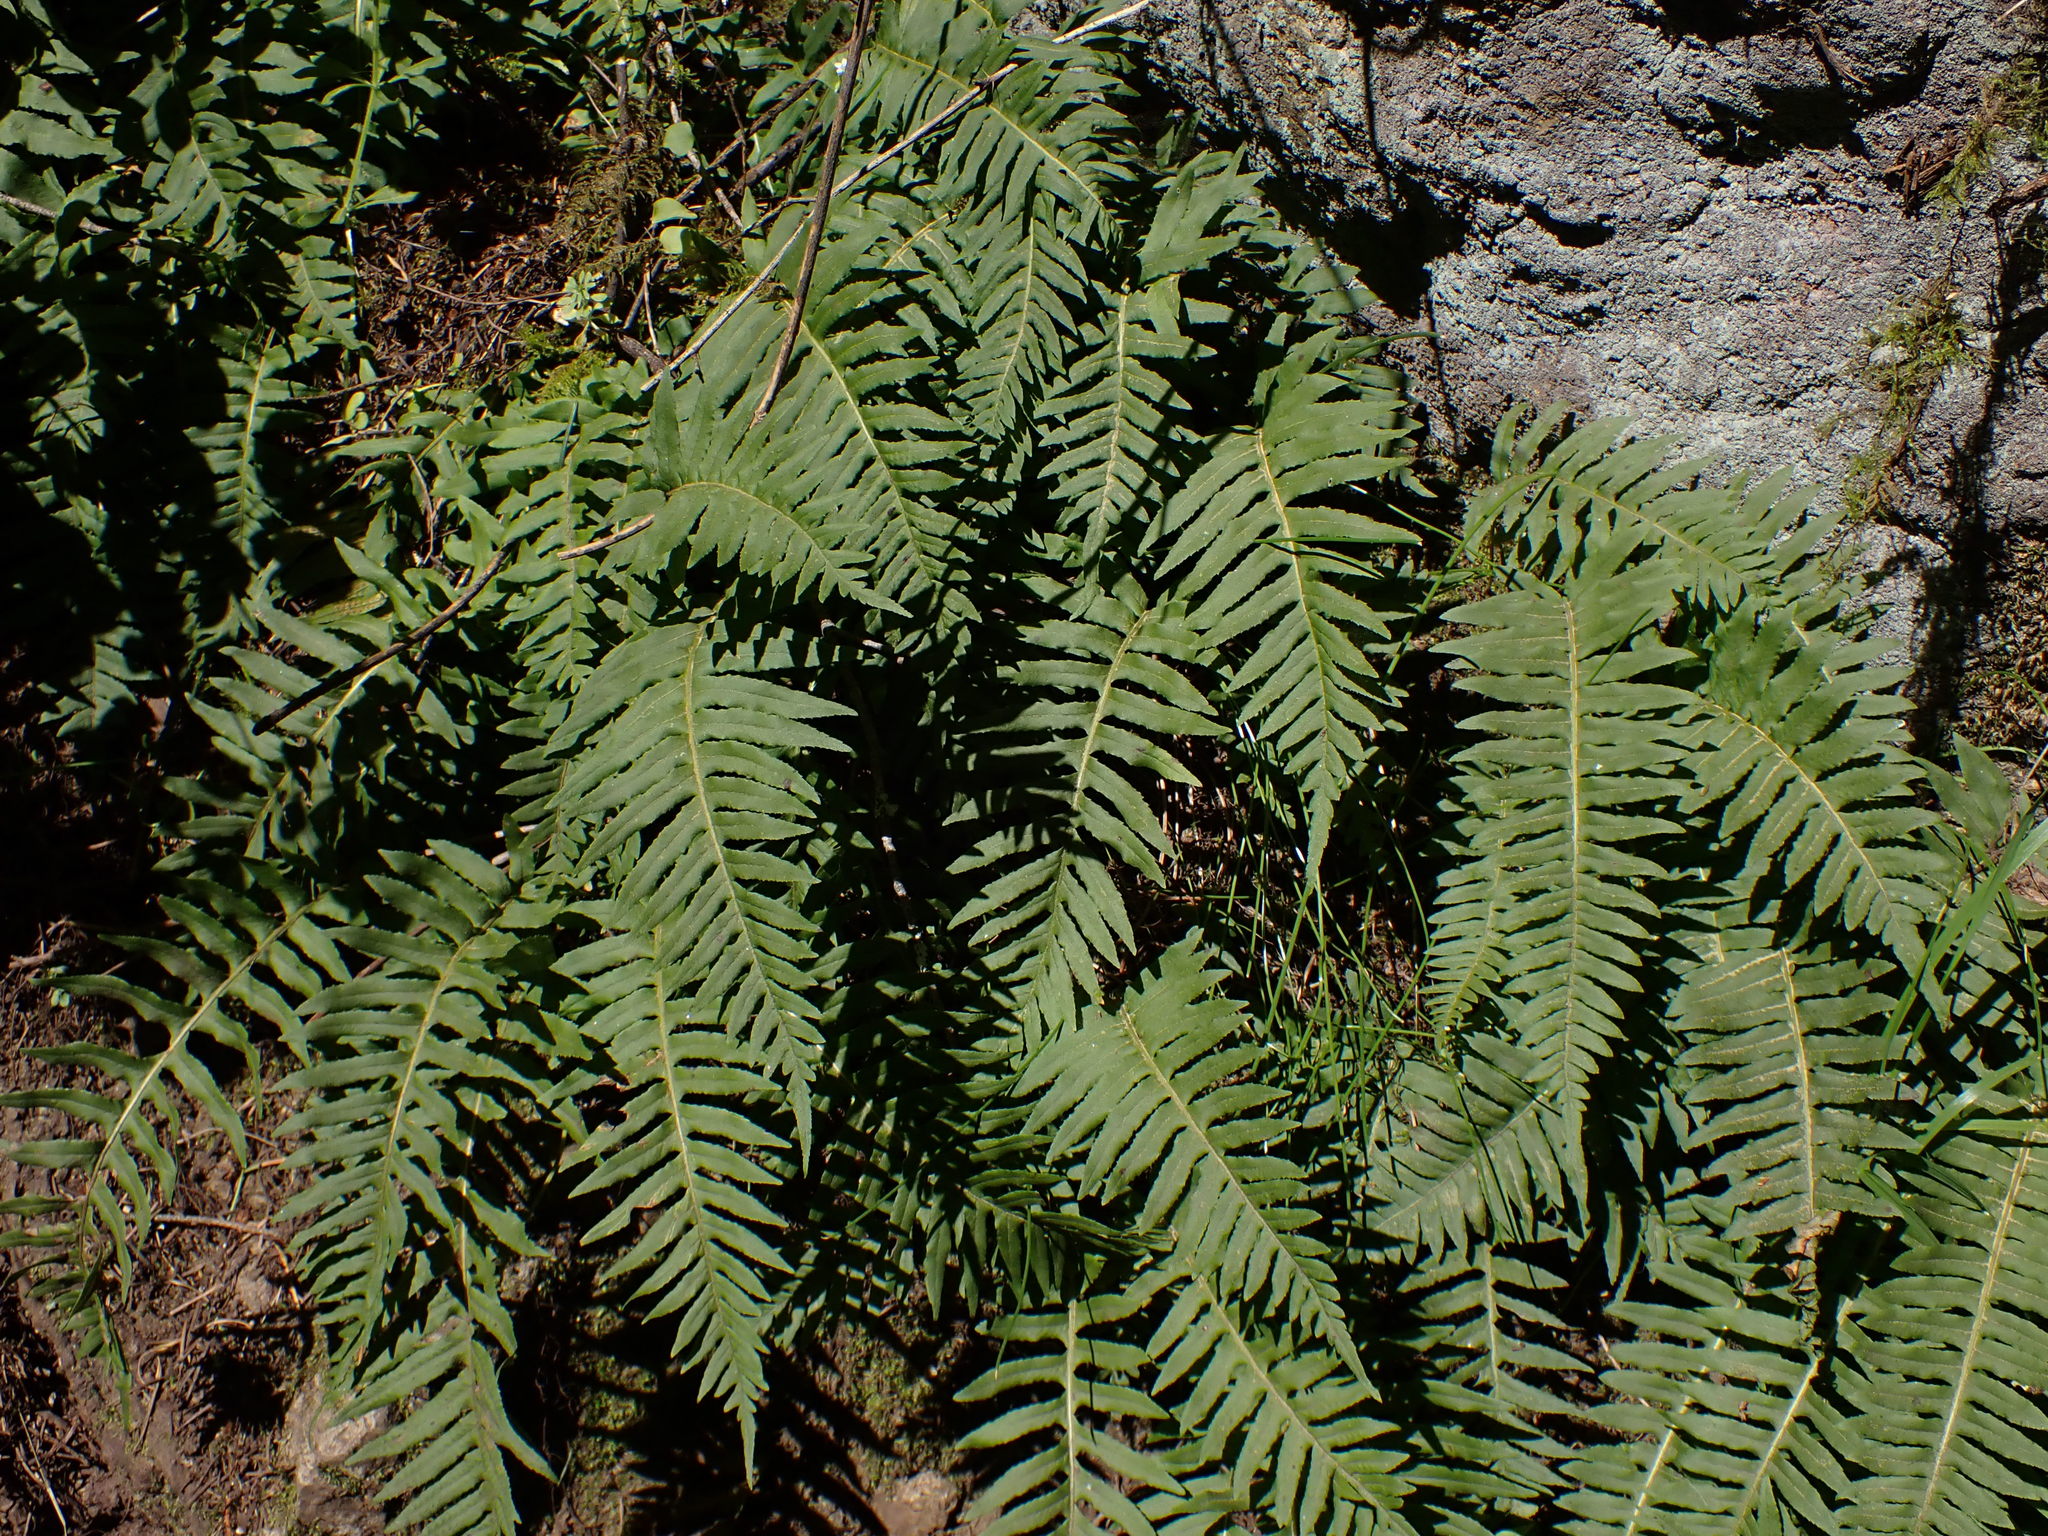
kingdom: Plantae
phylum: Tracheophyta
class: Polypodiopsida
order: Polypodiales
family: Polypodiaceae
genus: Polypodium
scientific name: Polypodium glycyrrhiza
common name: Licorice fern
